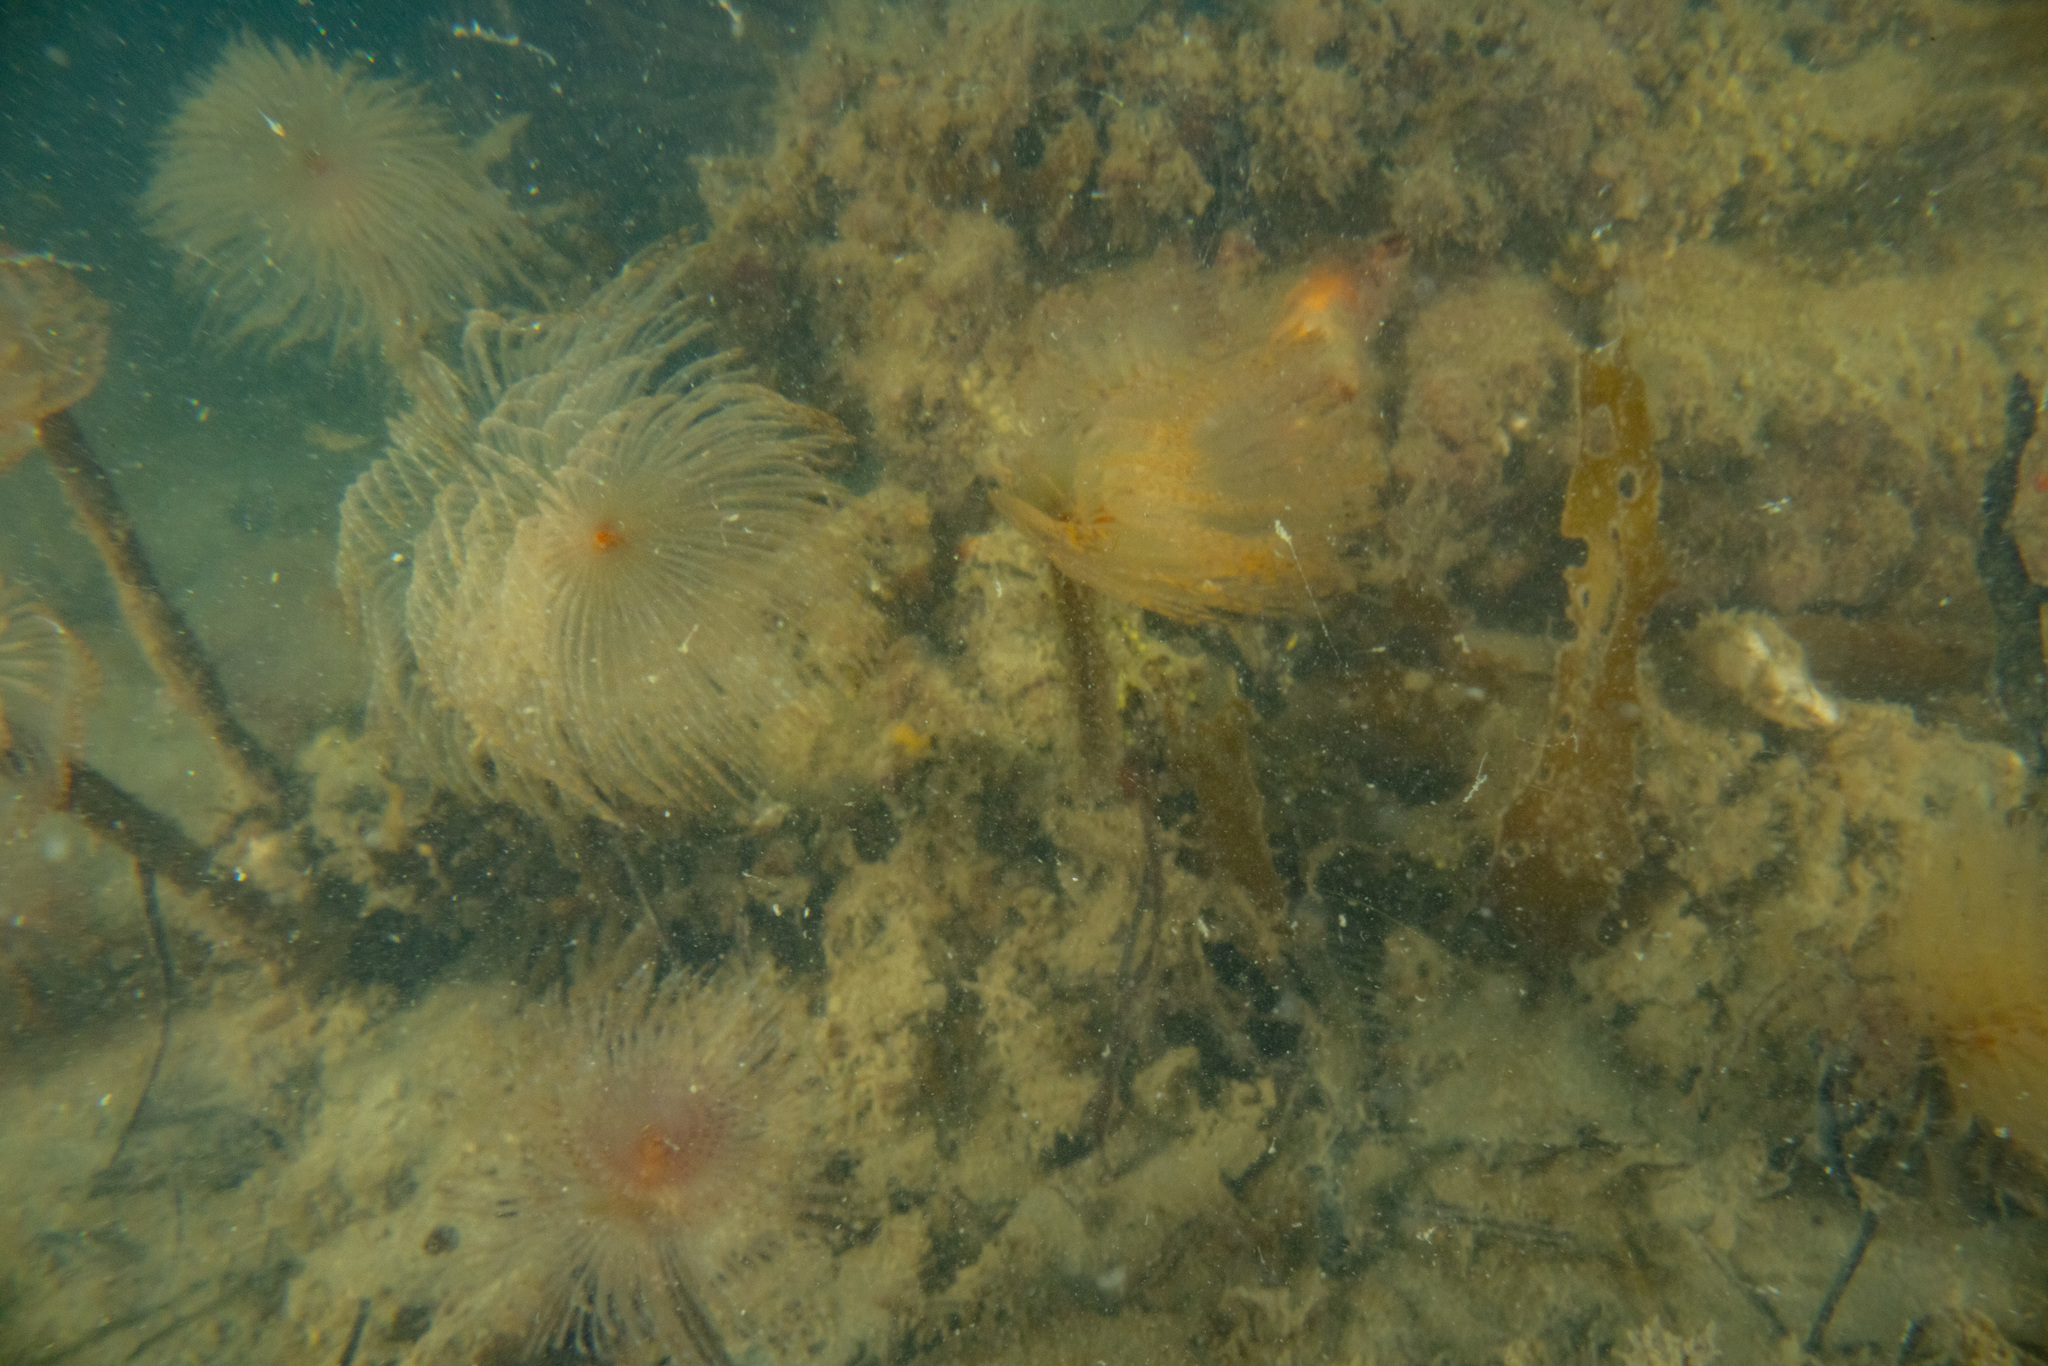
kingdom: Animalia
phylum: Annelida
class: Polychaeta
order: Sabellida
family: Sabellidae
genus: Sabella
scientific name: Sabella spallanzanii
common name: Feather duster worm
